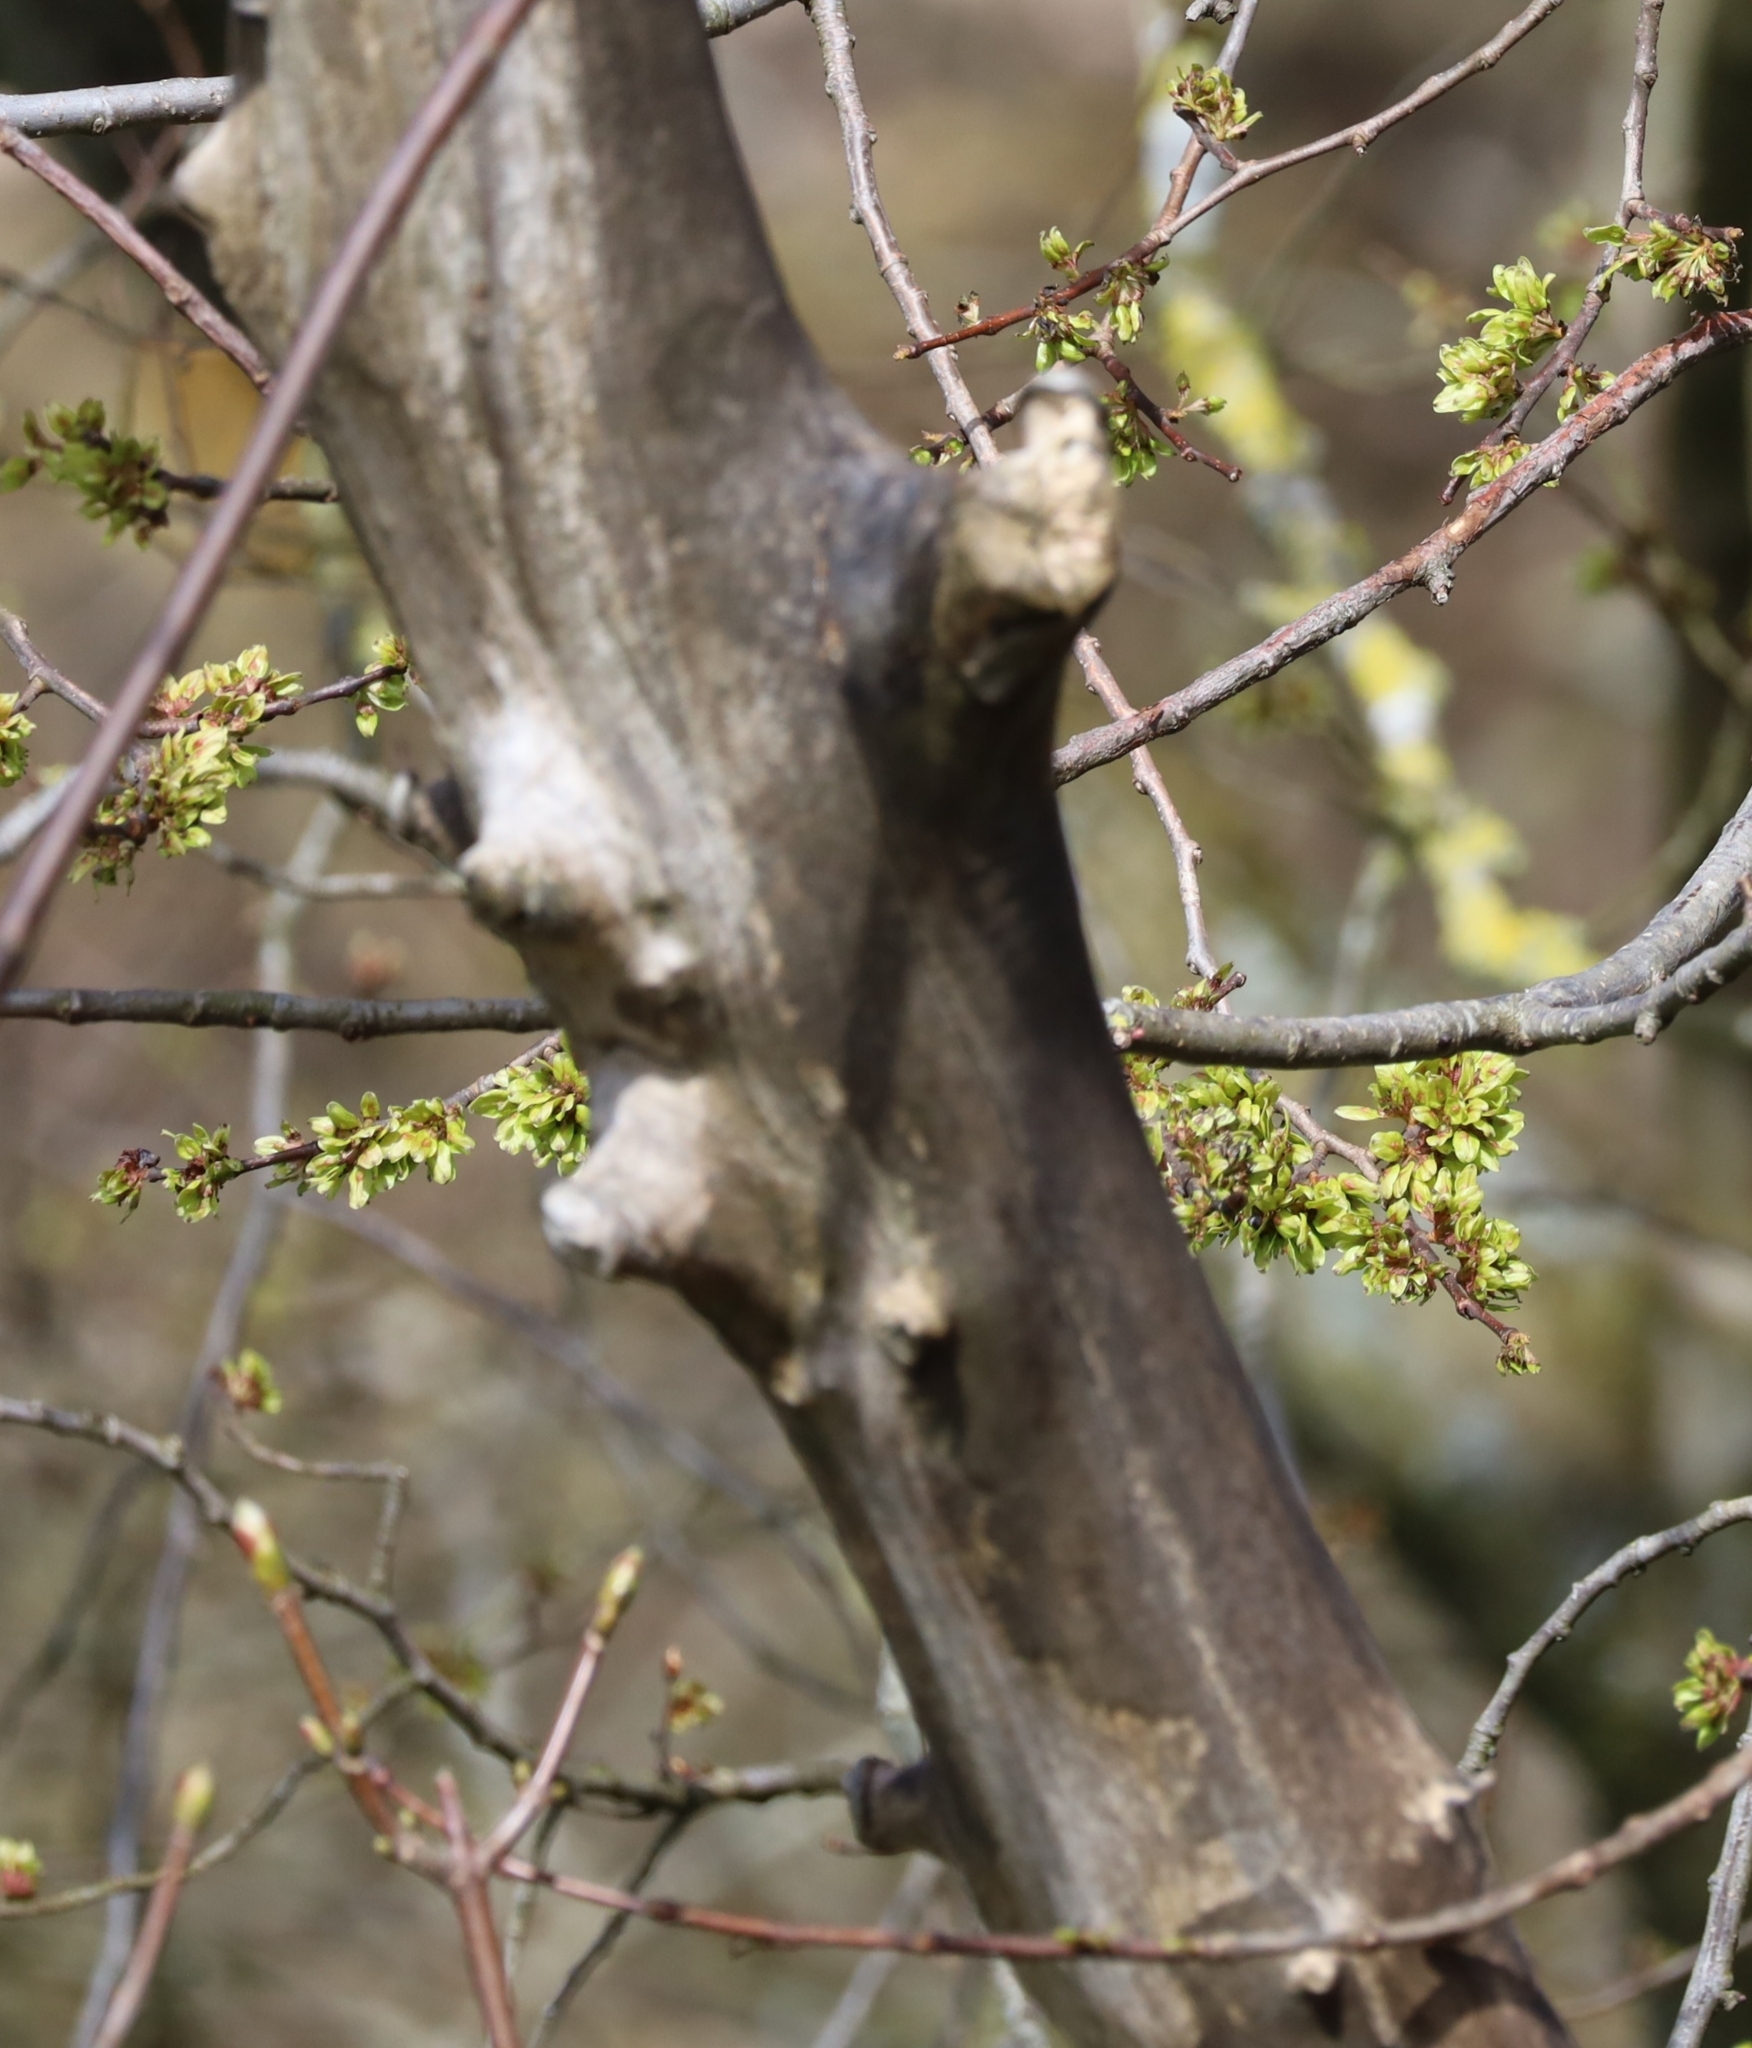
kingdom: Plantae
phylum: Tracheophyta
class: Magnoliopsida
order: Rosales
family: Ulmaceae
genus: Ulmus
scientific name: Ulmus glabra
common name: Wych elm
